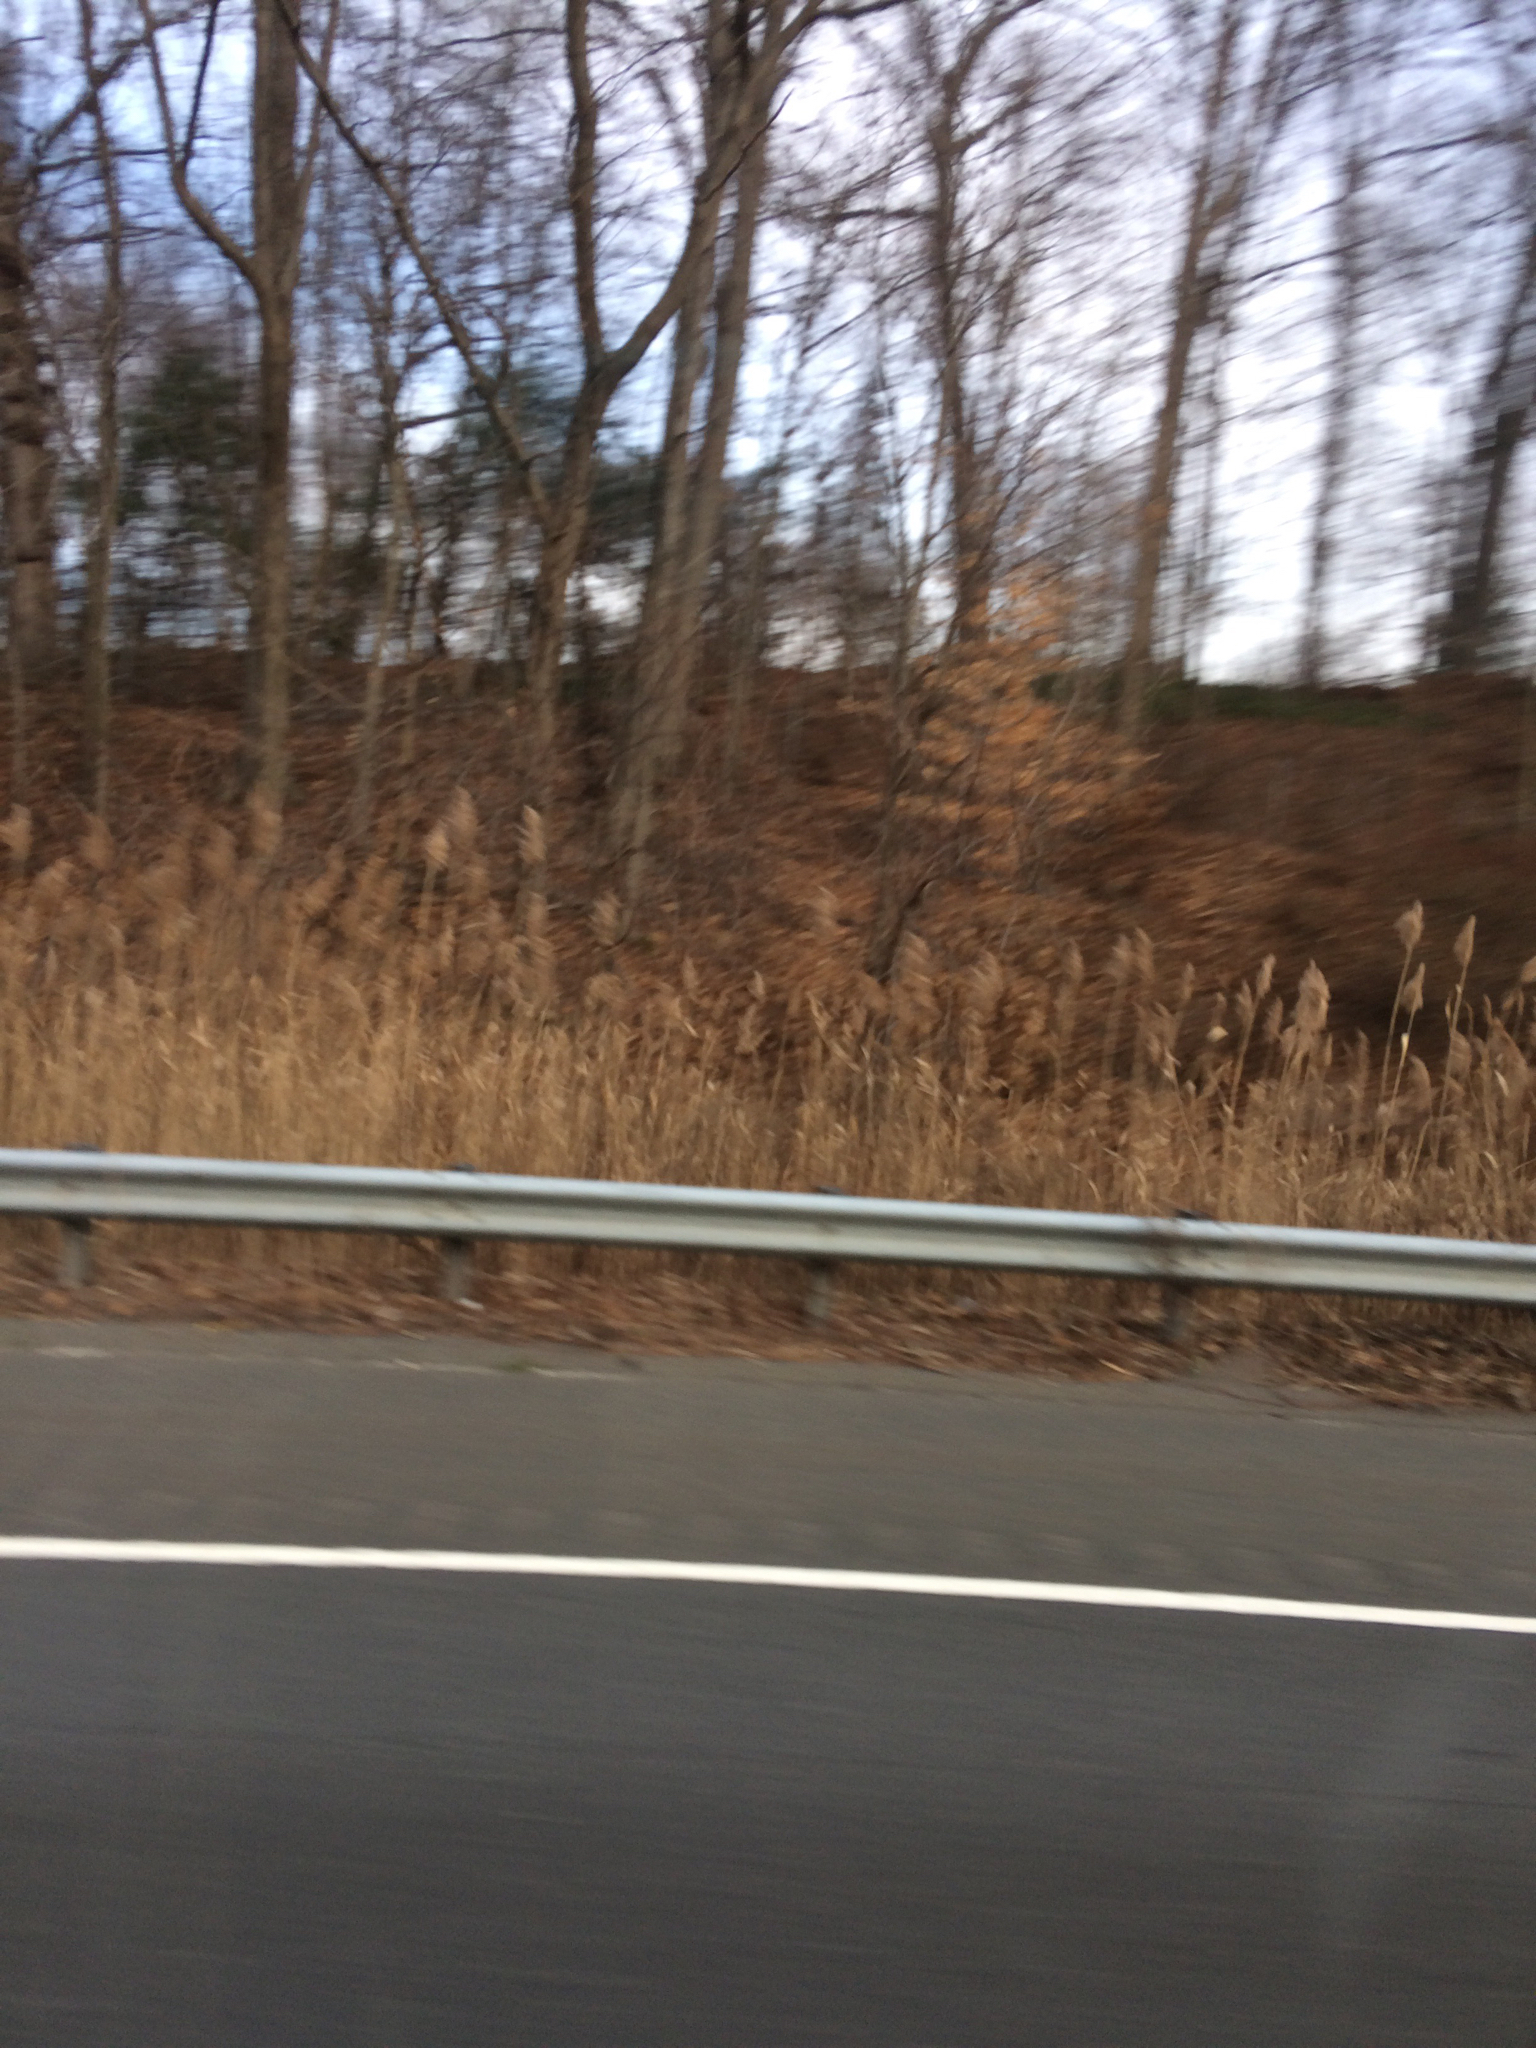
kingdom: Plantae
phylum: Tracheophyta
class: Liliopsida
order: Poales
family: Poaceae
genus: Phragmites
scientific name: Phragmites australis
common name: Common reed
